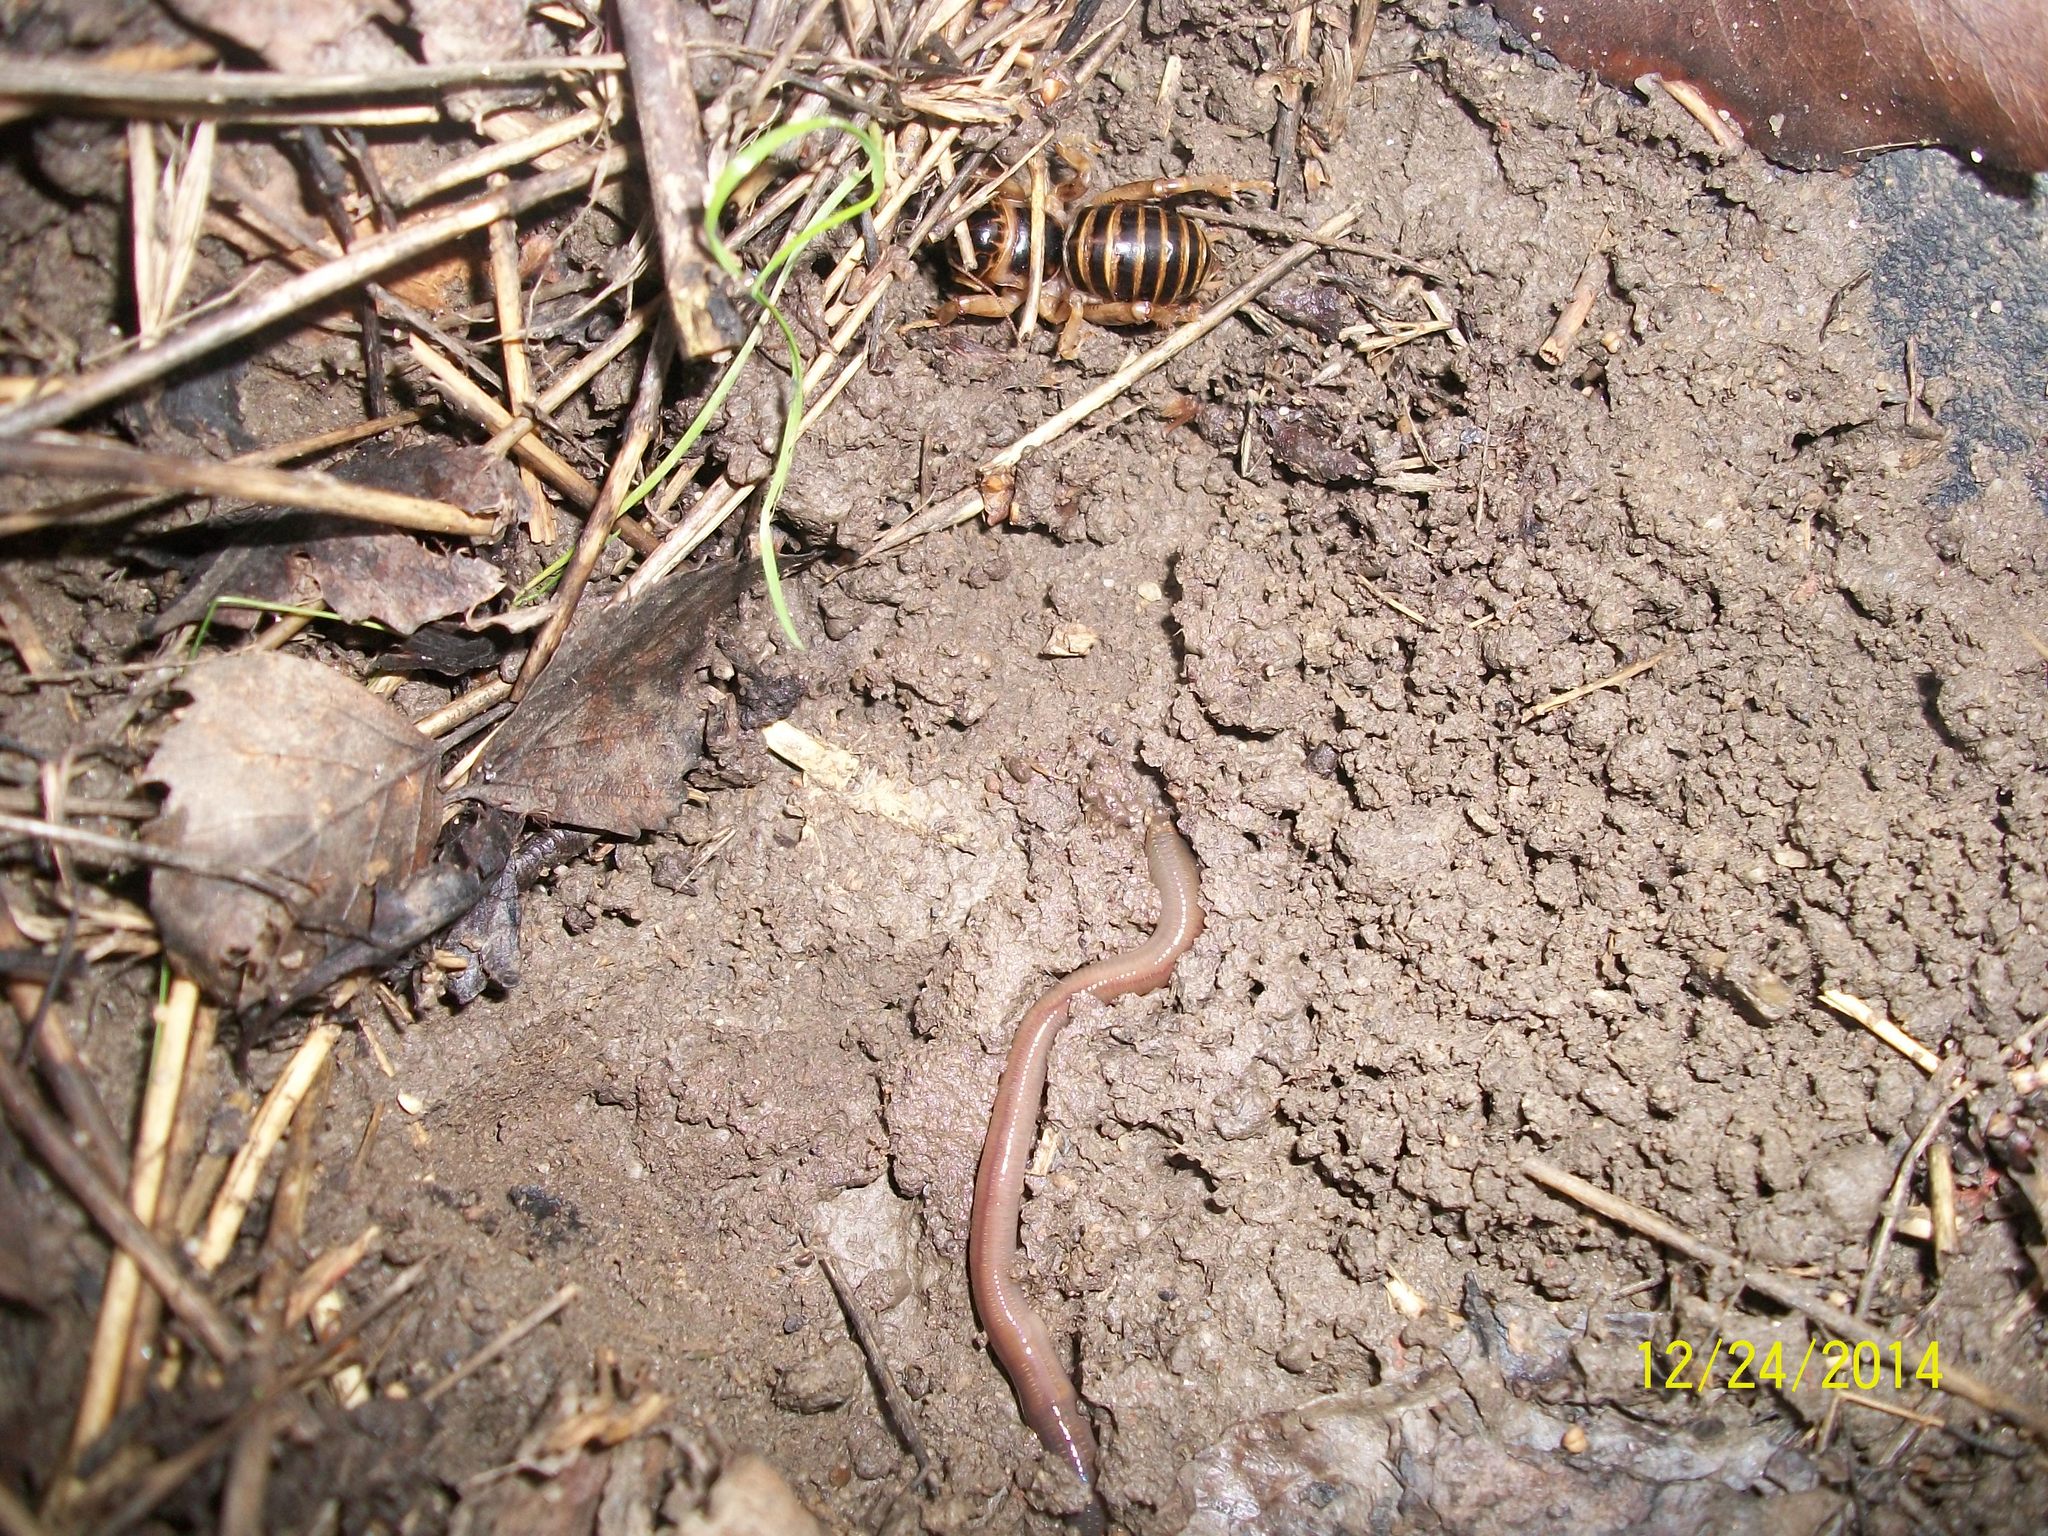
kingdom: Animalia
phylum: Arthropoda
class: Insecta
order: Orthoptera
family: Stenopelmatidae
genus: Ammopelmatus
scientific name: Ammopelmatus pictus
